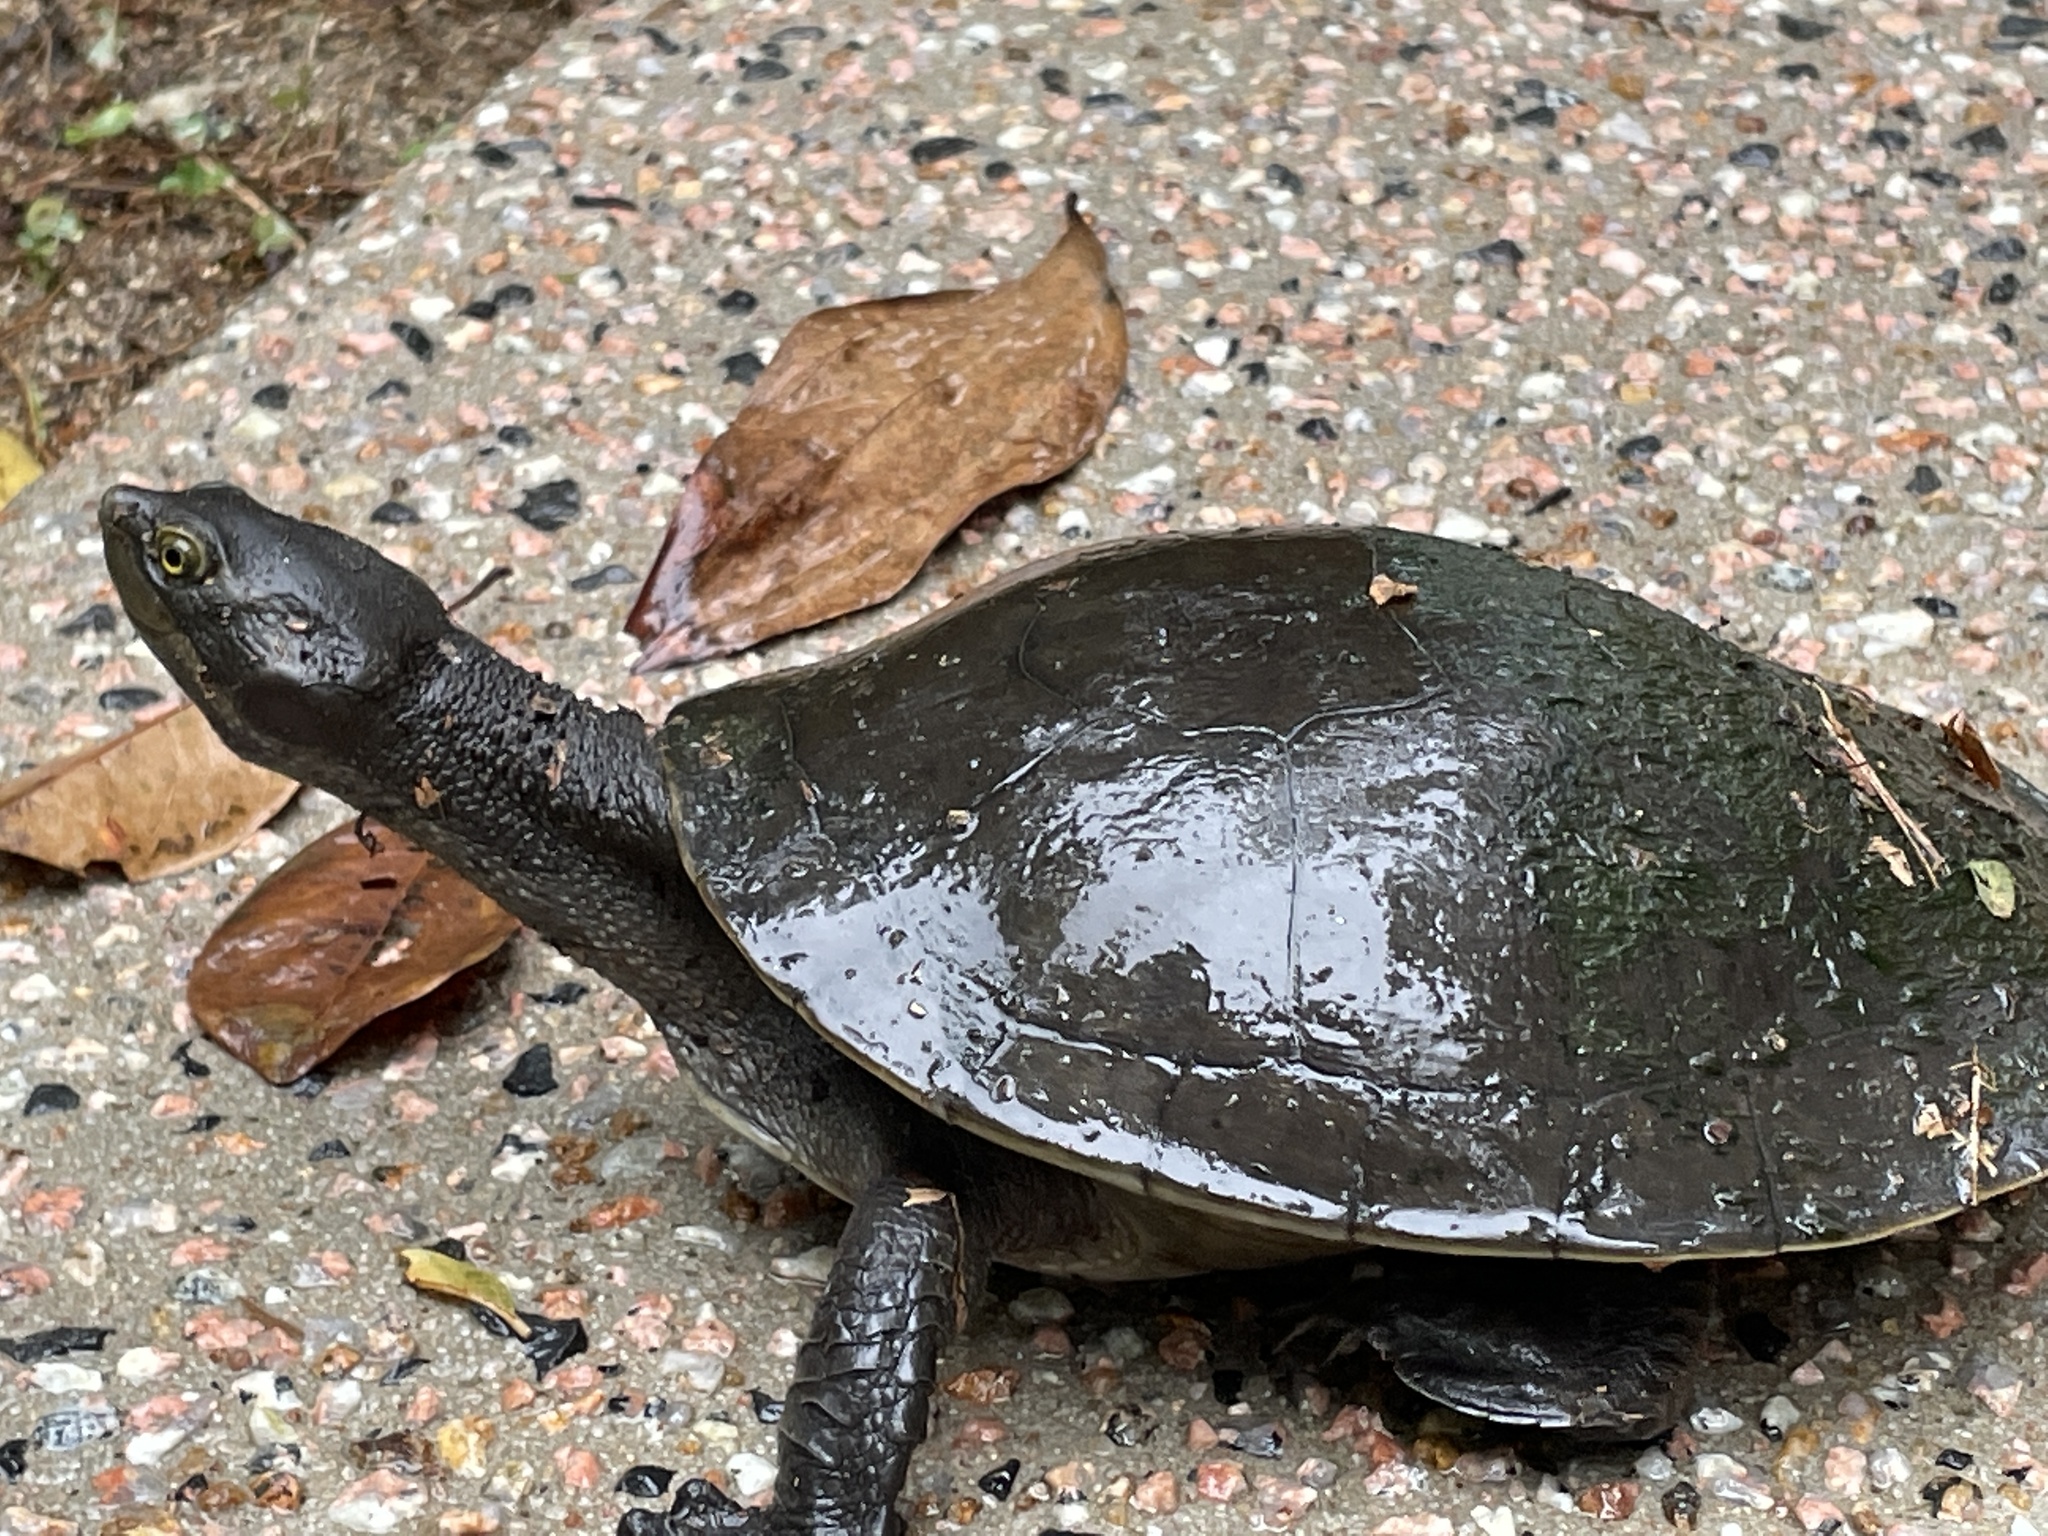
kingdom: Animalia
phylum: Chordata
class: Testudines
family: Chelidae
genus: Emydura
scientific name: Emydura macquarii
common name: Murray river turtle
